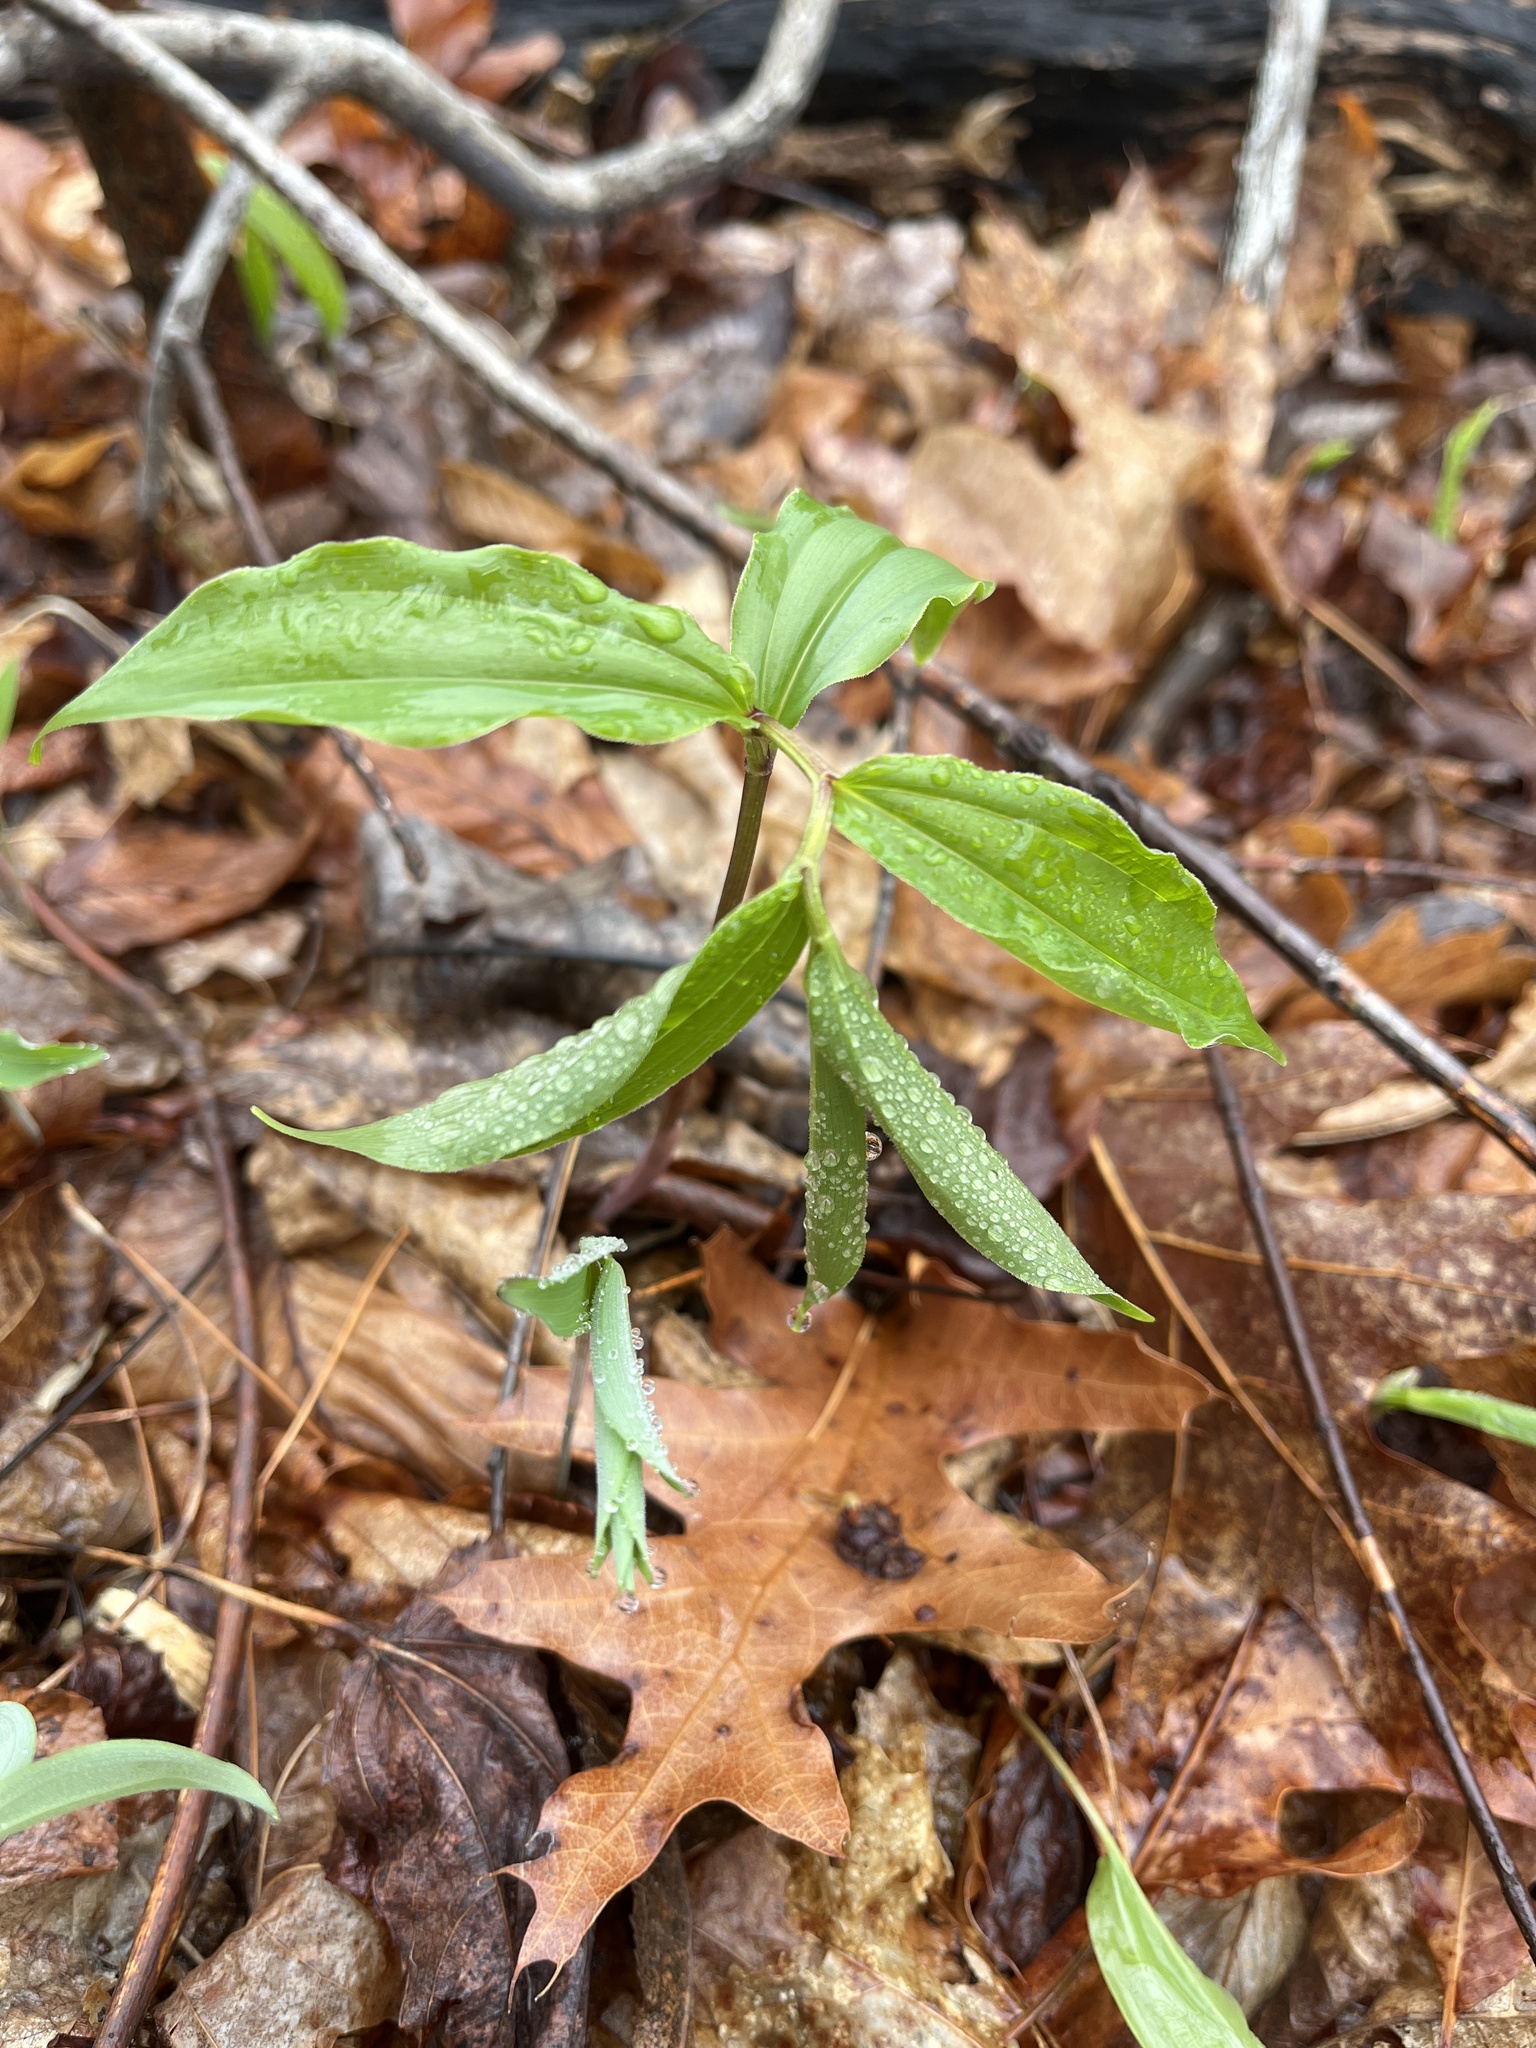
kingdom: Plantae
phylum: Tracheophyta
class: Liliopsida
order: Asparagales
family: Asparagaceae
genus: Maianthemum
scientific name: Maianthemum racemosum
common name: False spikenard
